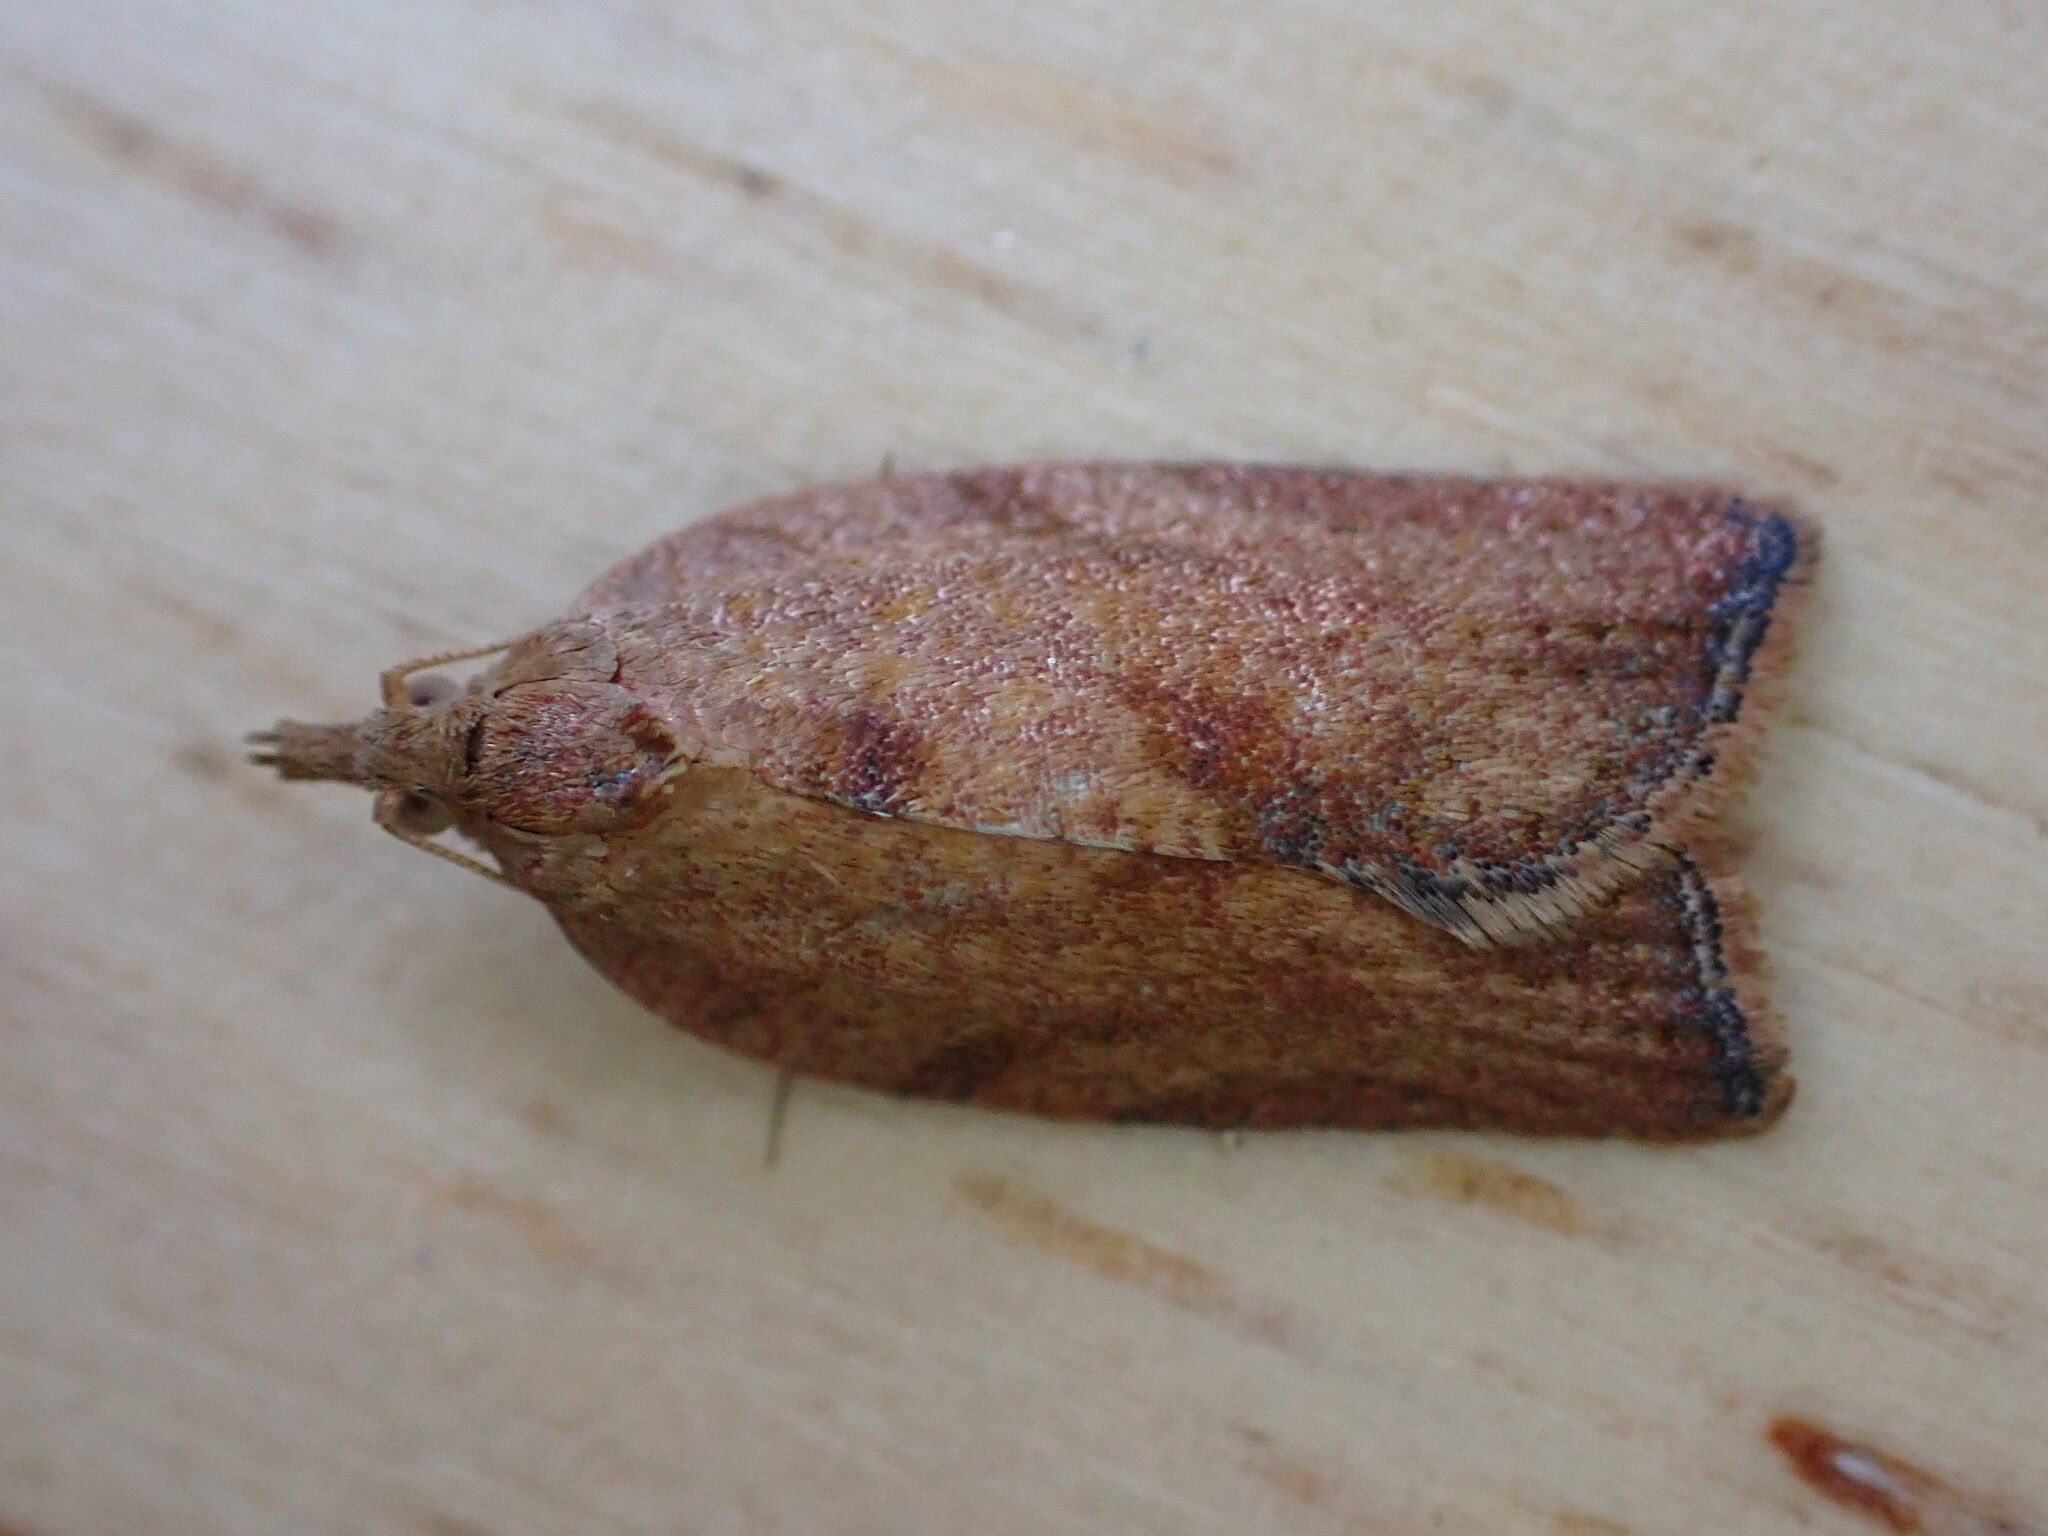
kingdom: Animalia
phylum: Arthropoda
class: Insecta
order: Lepidoptera
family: Tortricidae
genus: Epiphyas
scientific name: Epiphyas postvittana
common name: Light brown apple moth
